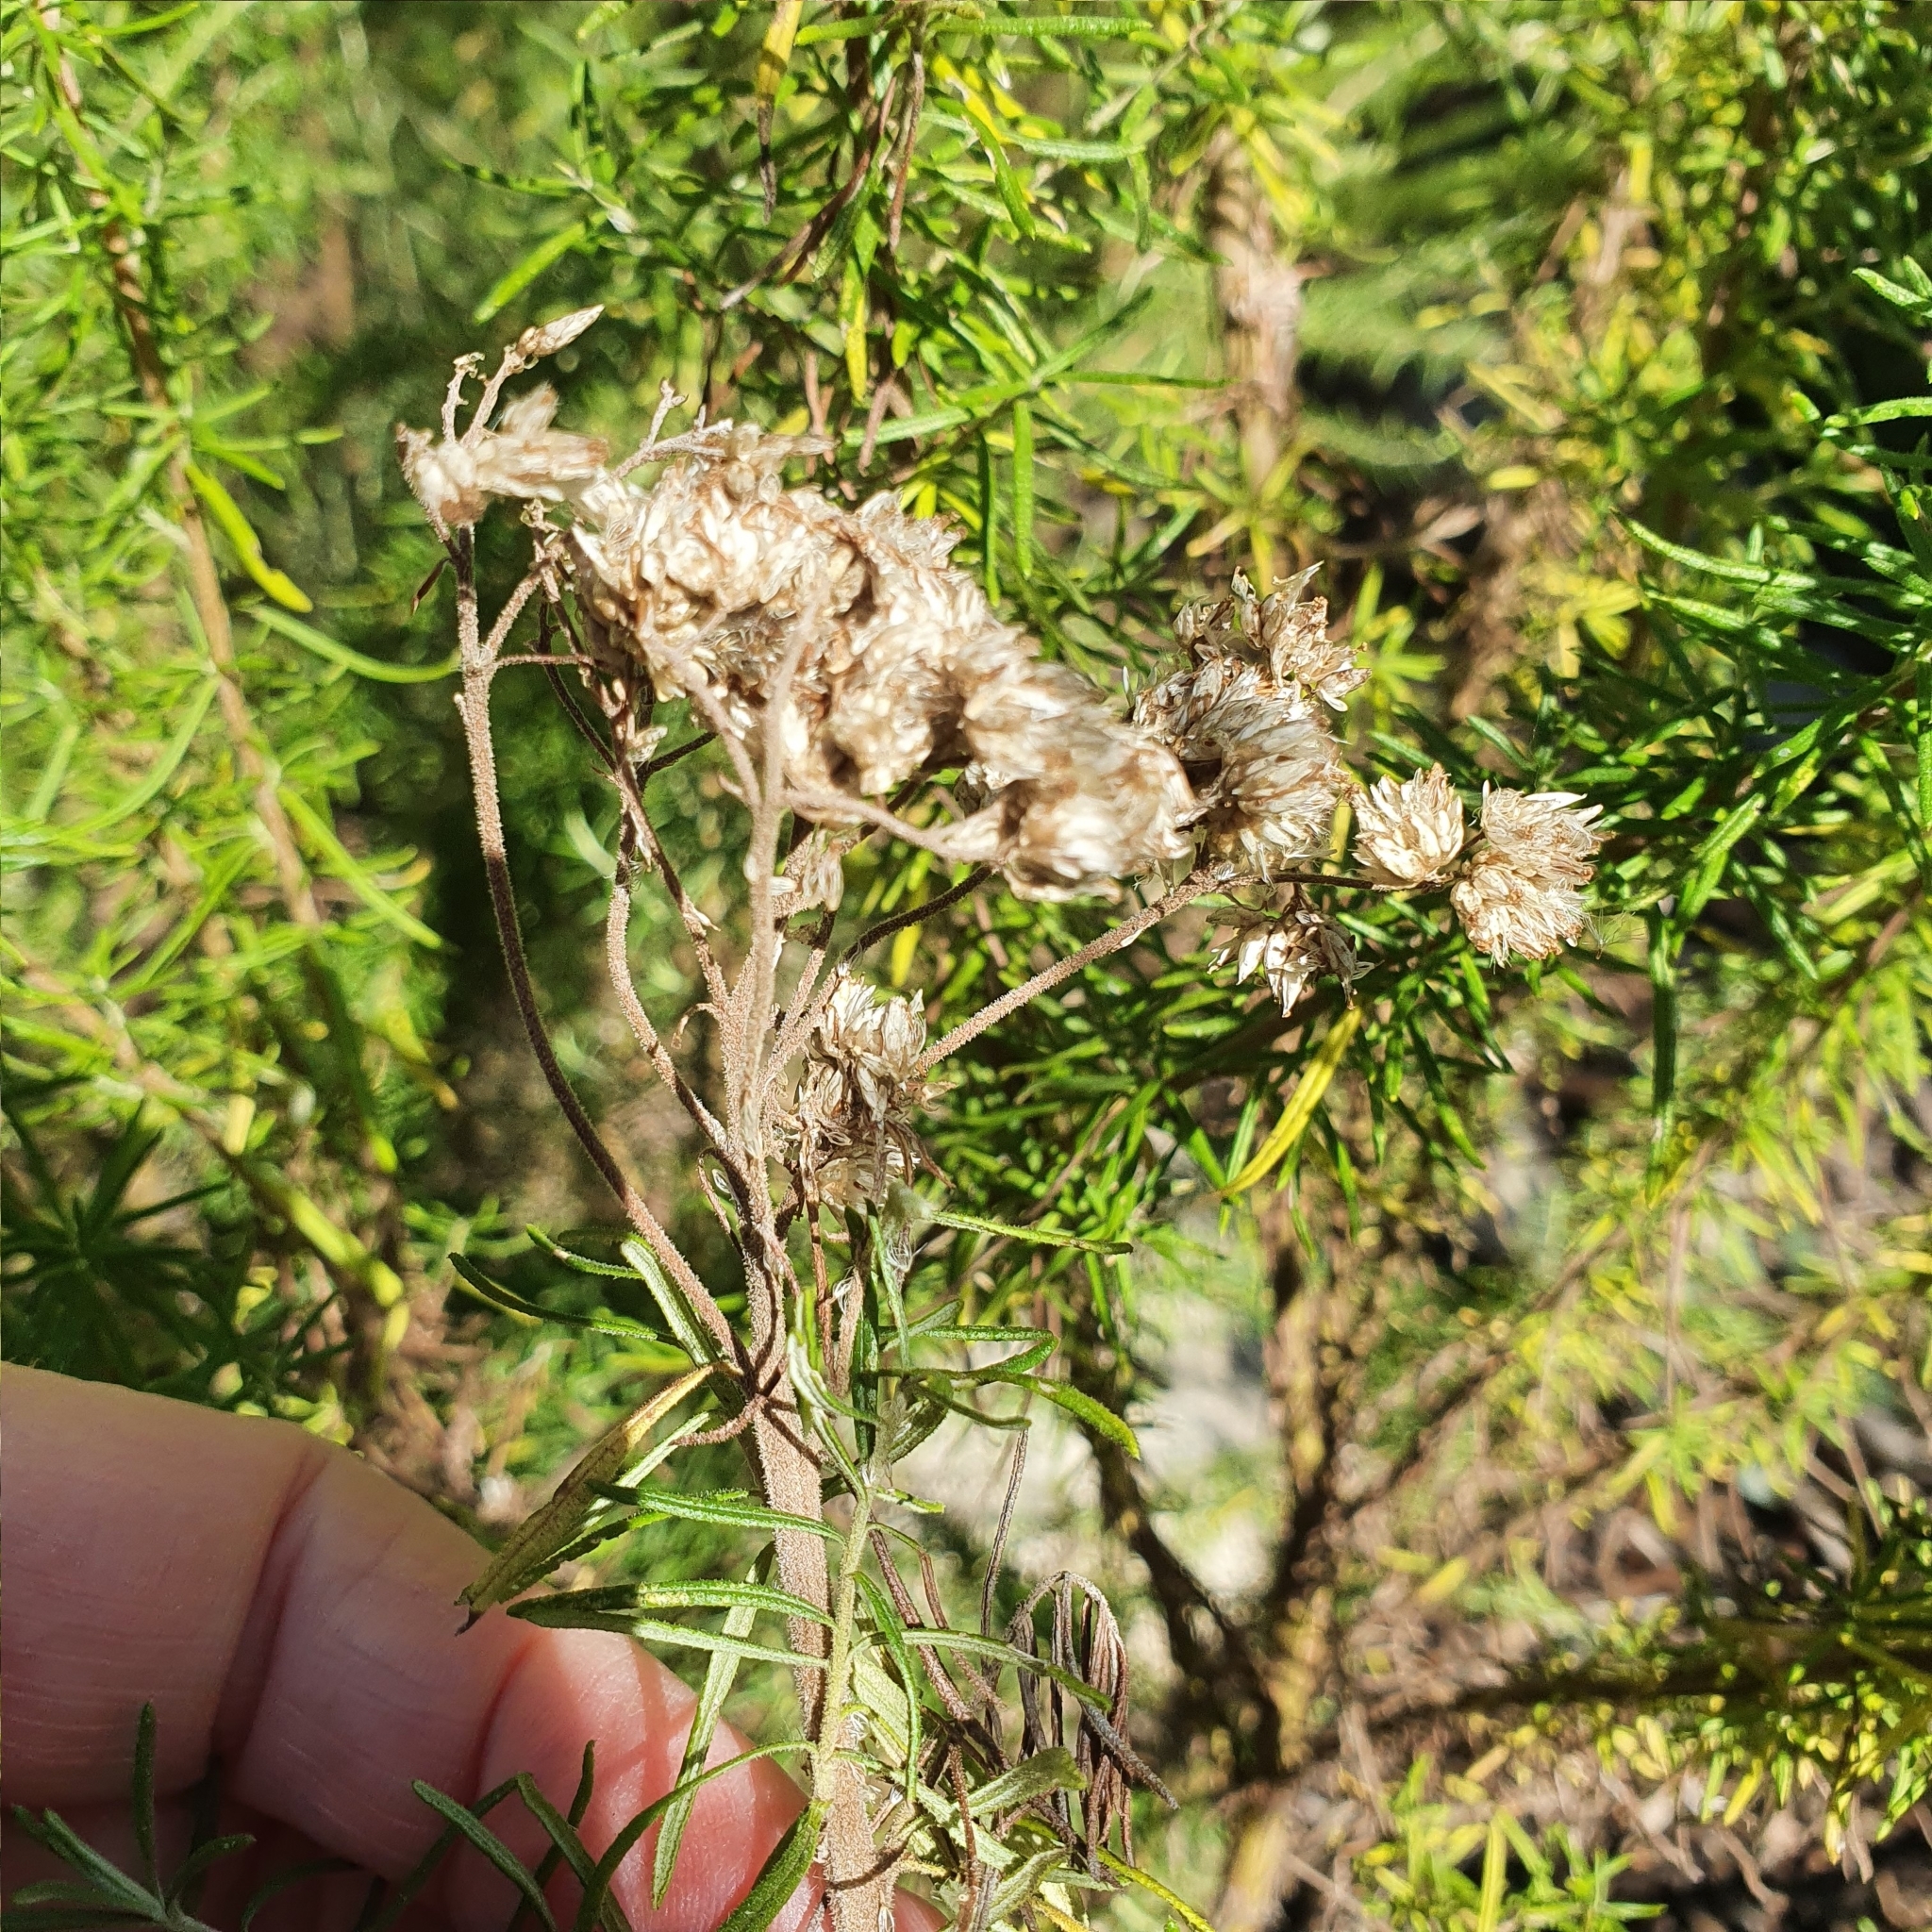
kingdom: Plantae
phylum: Tracheophyta
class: Magnoliopsida
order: Asterales
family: Asteraceae
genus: Cassinia
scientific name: Cassinia aculeata
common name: Australian tauhinu
